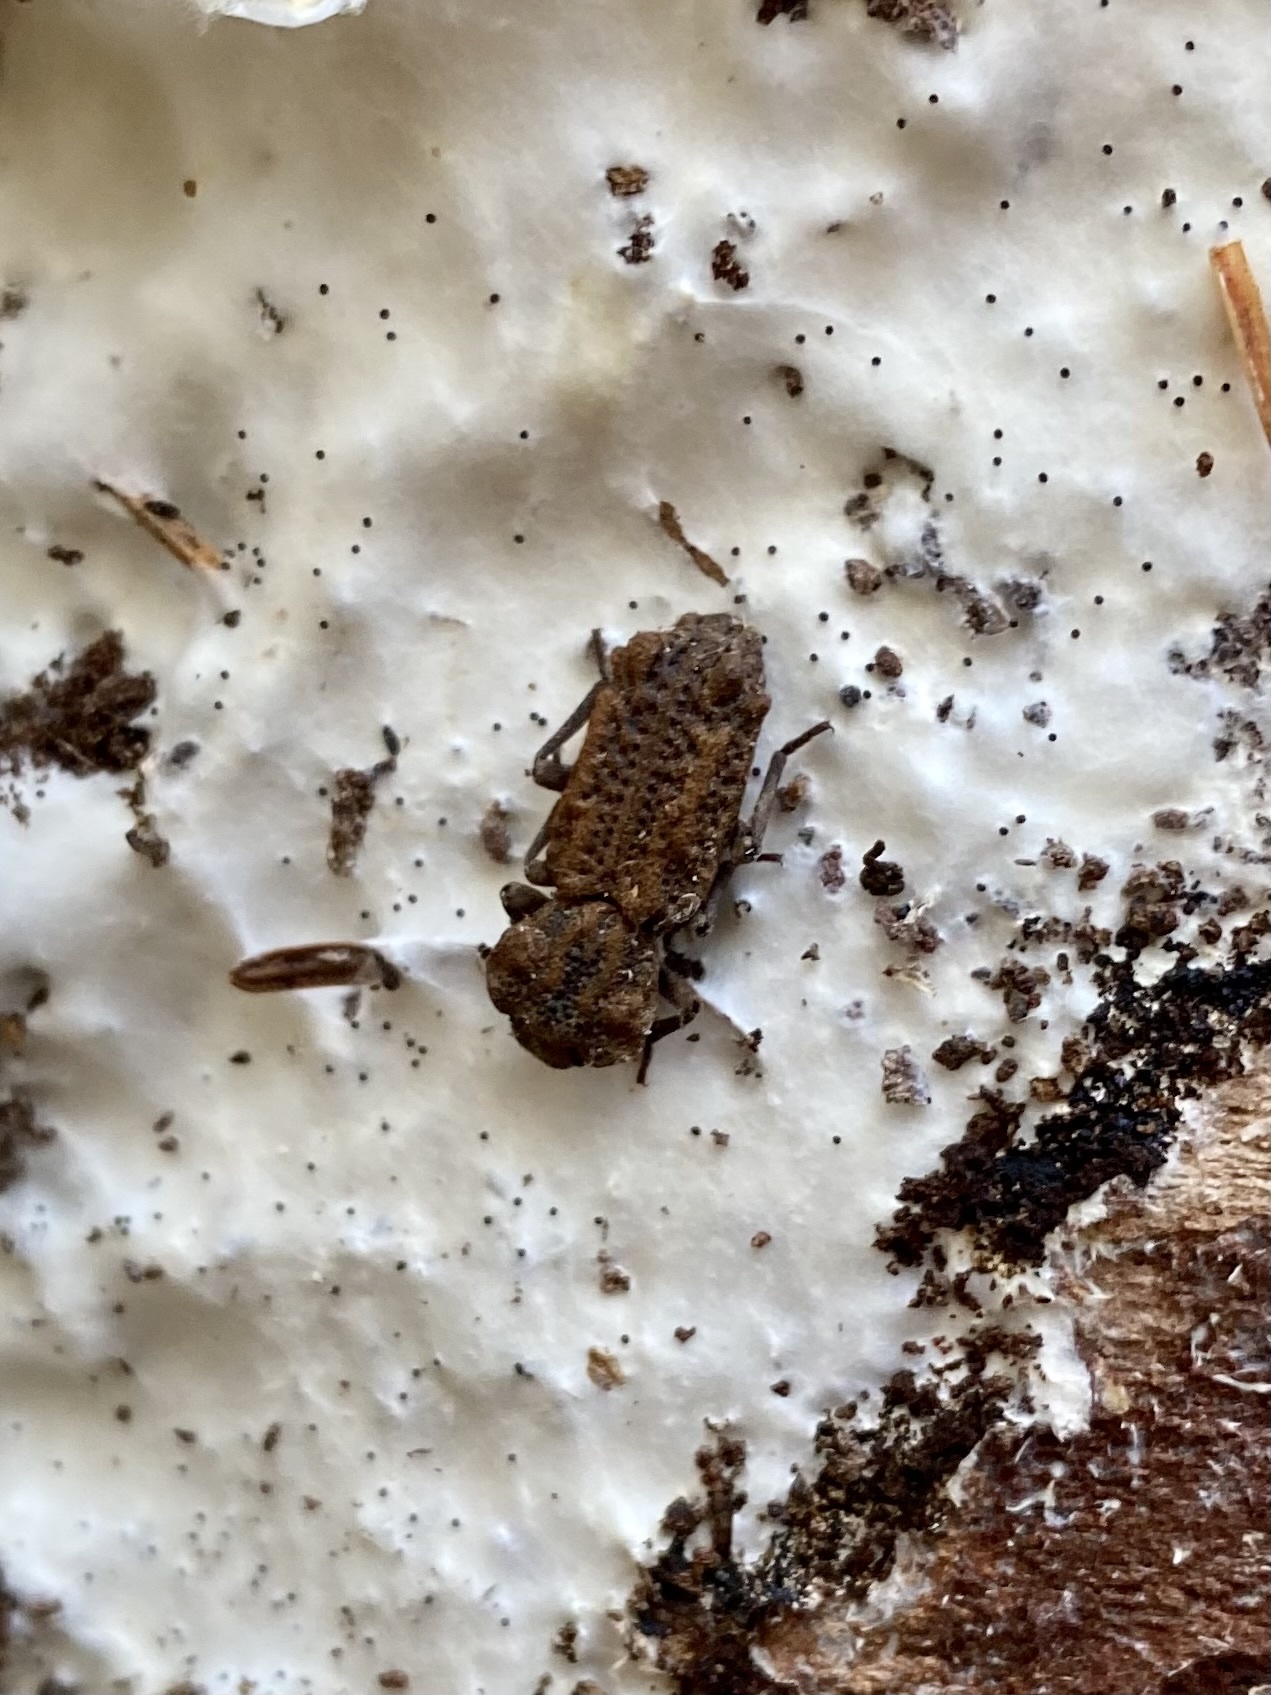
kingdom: Animalia
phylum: Arthropoda
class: Insecta
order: Coleoptera
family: Zopheridae
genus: Phellopsis
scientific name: Phellopsis obcordata
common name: Eastern ironclad beetle
